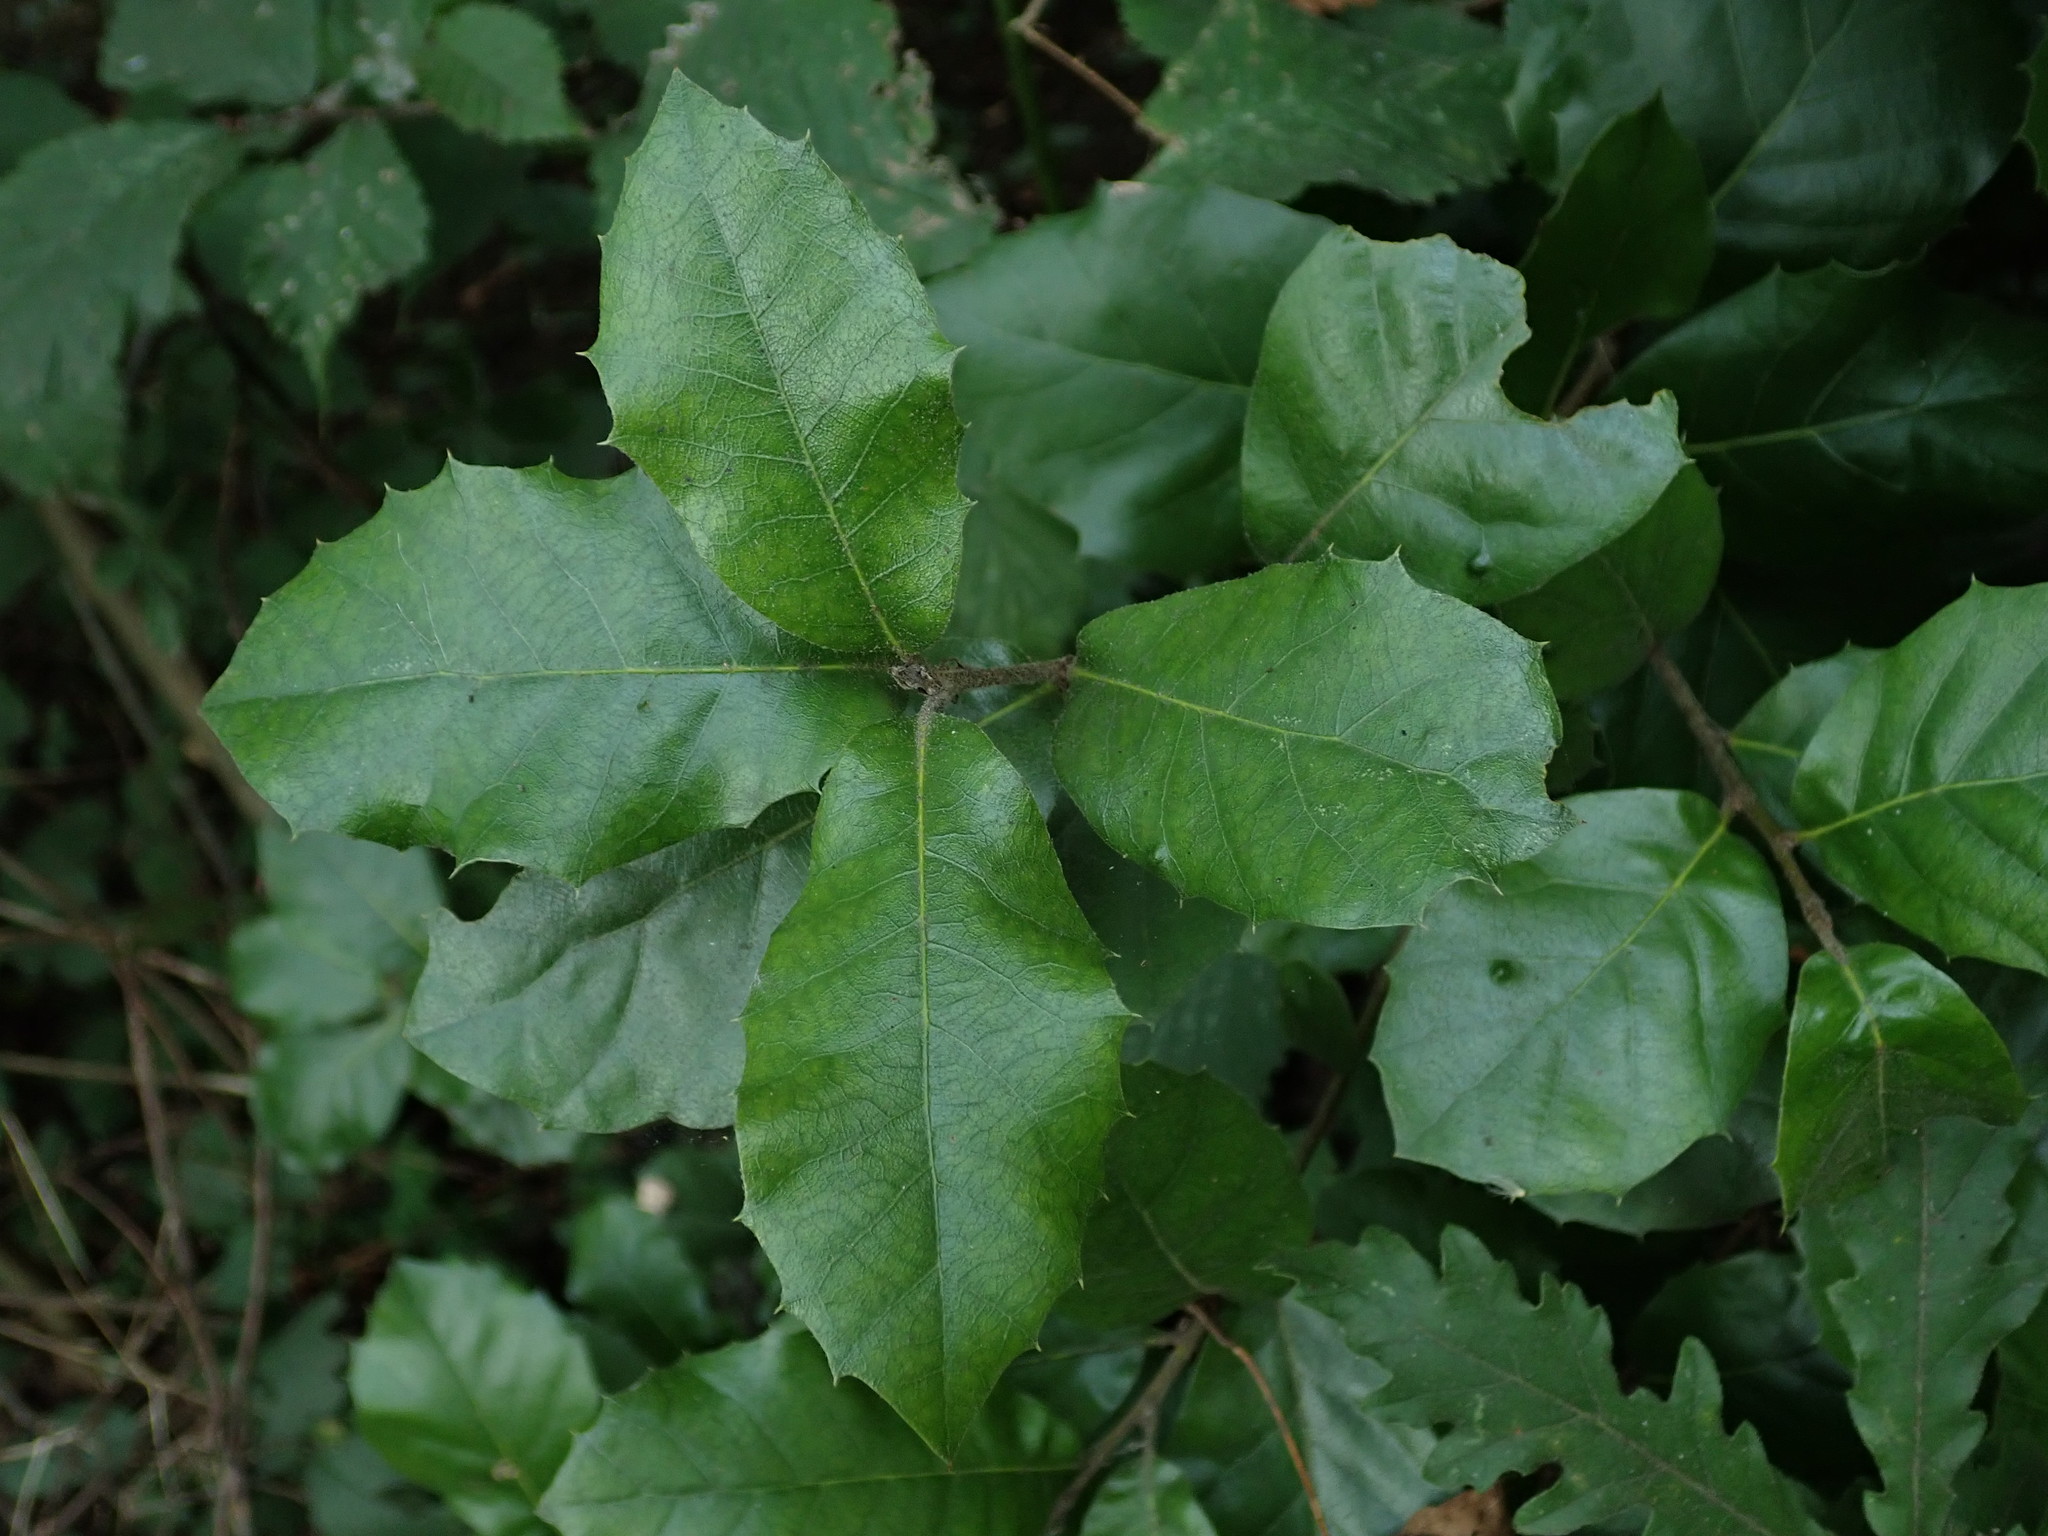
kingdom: Plantae
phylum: Tracheophyta
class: Magnoliopsida
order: Fagales
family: Fagaceae
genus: Quercus
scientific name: Quercus ilex
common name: Evergreen oak
